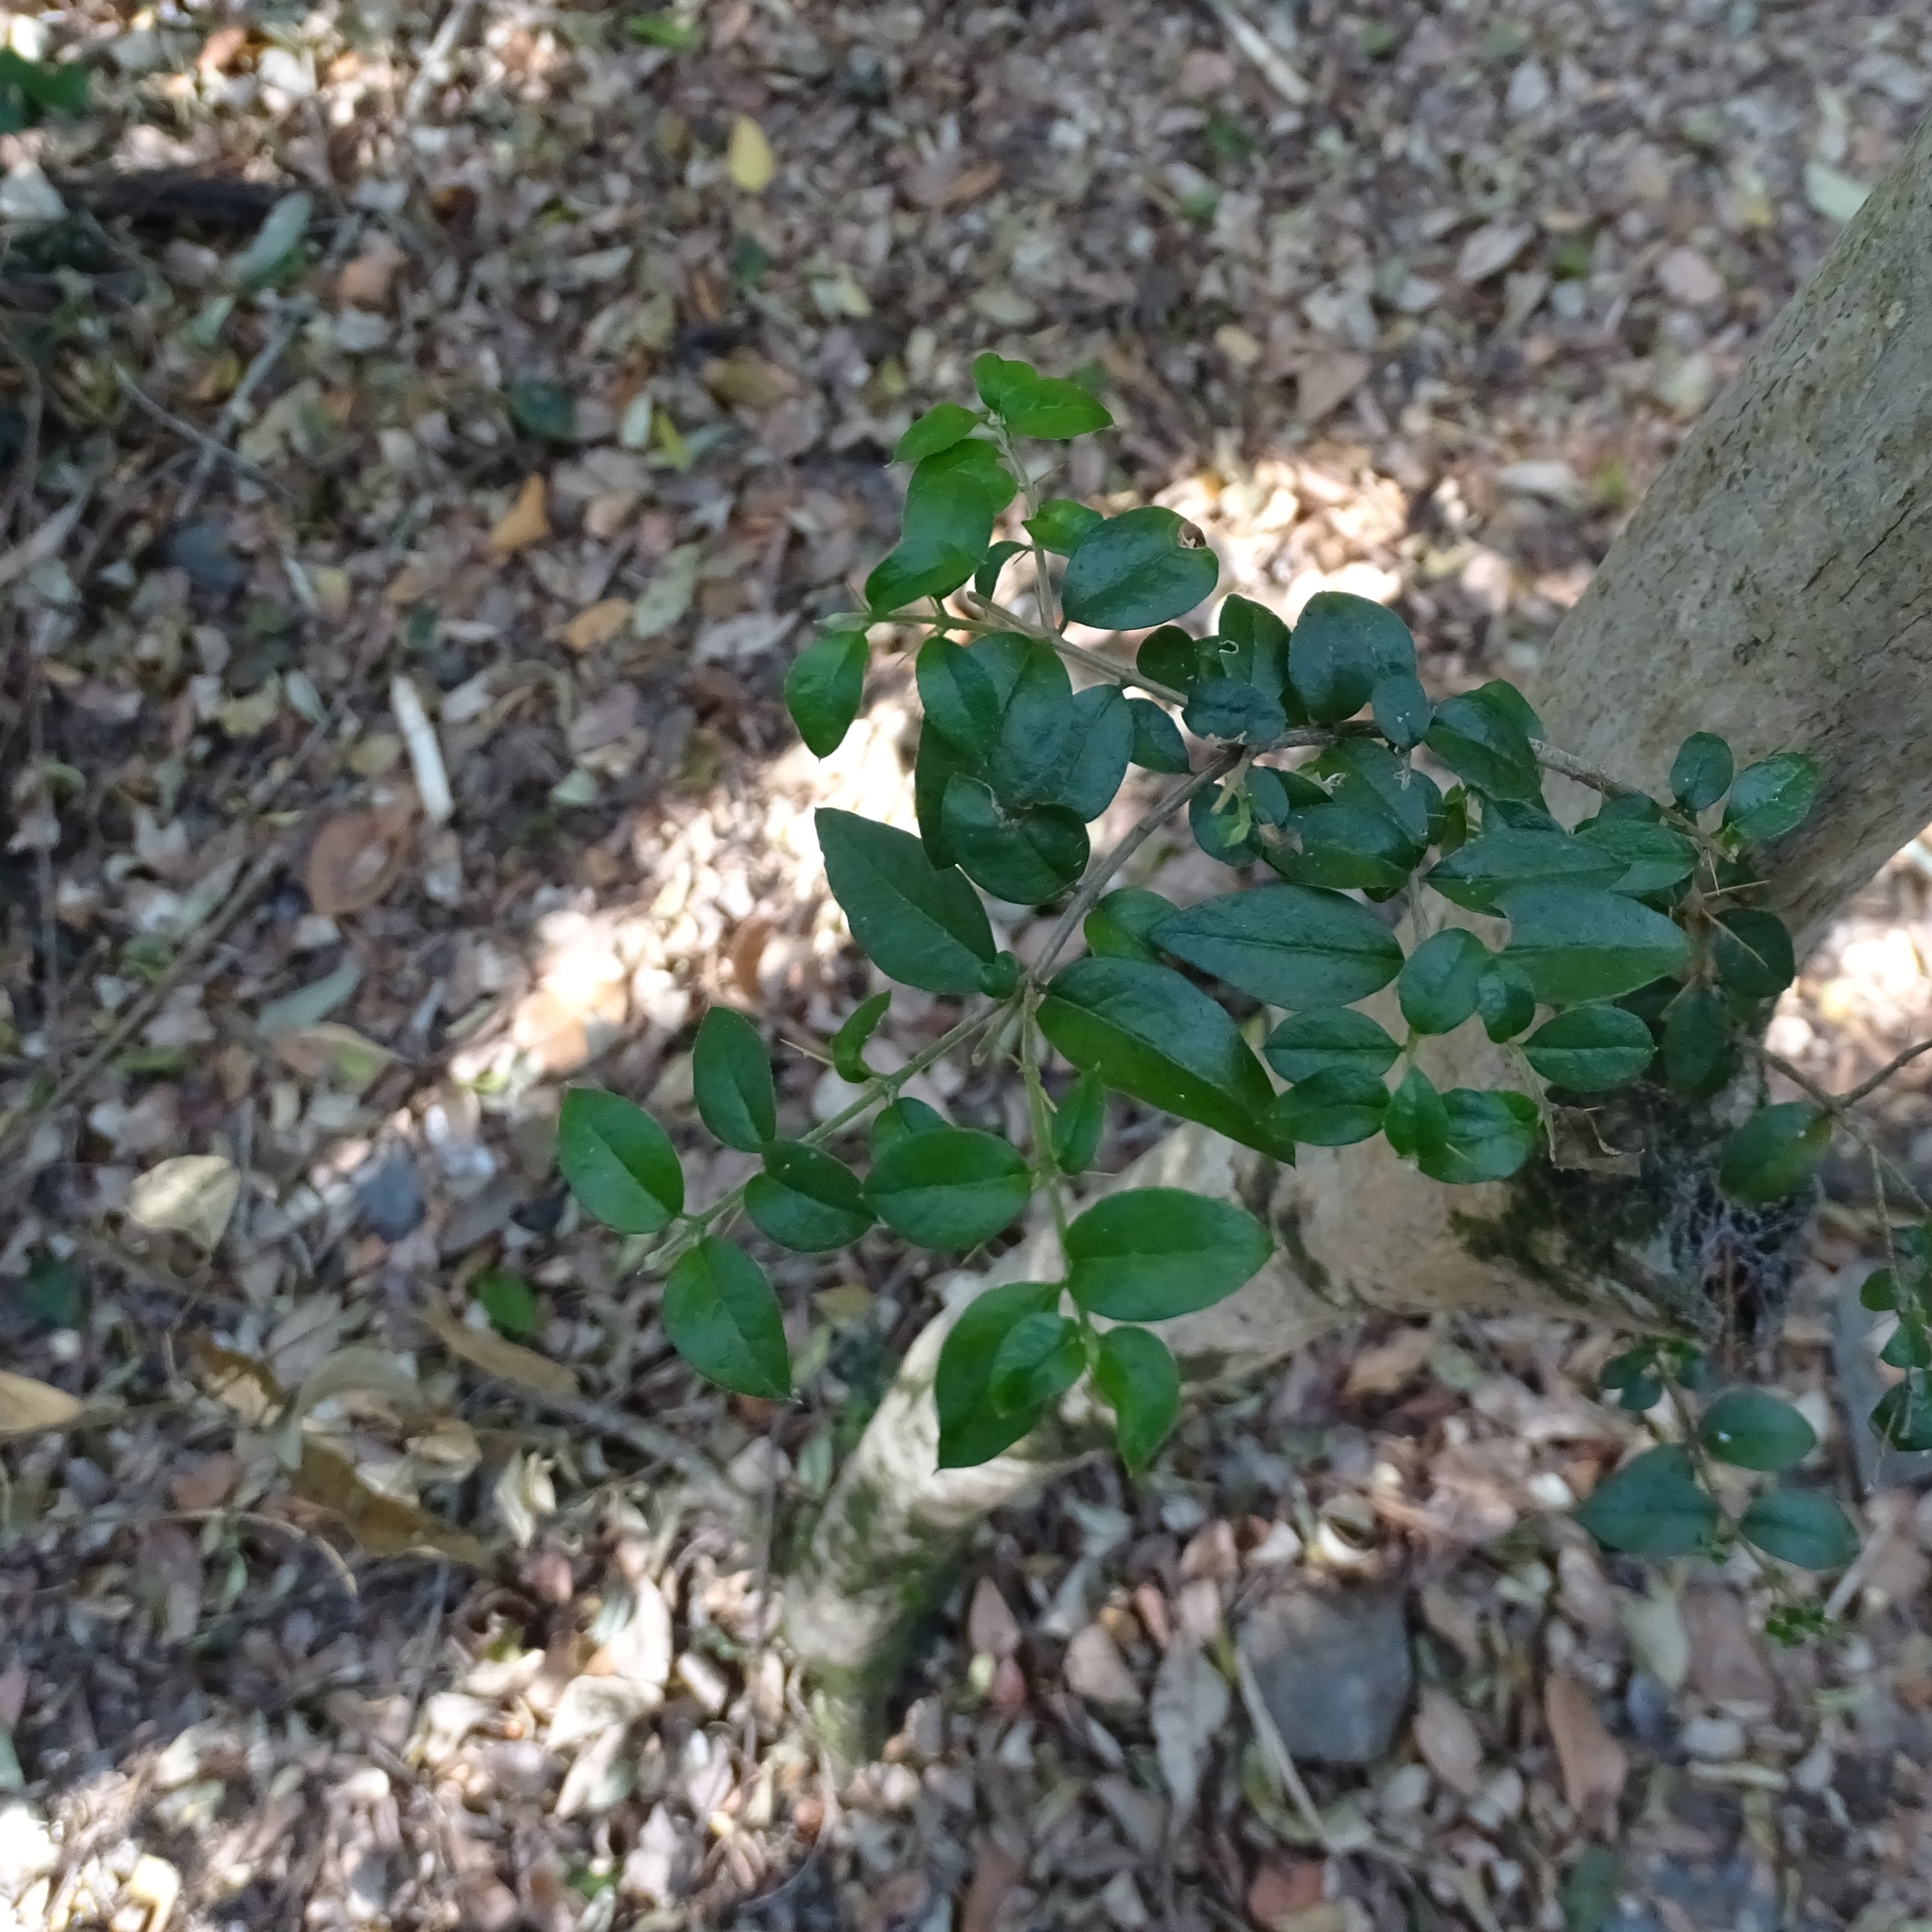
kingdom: Plantae
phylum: Tracheophyta
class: Magnoliopsida
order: Lamiales
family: Verbenaceae
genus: Rhaphithamnus
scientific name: Rhaphithamnus spinosus
